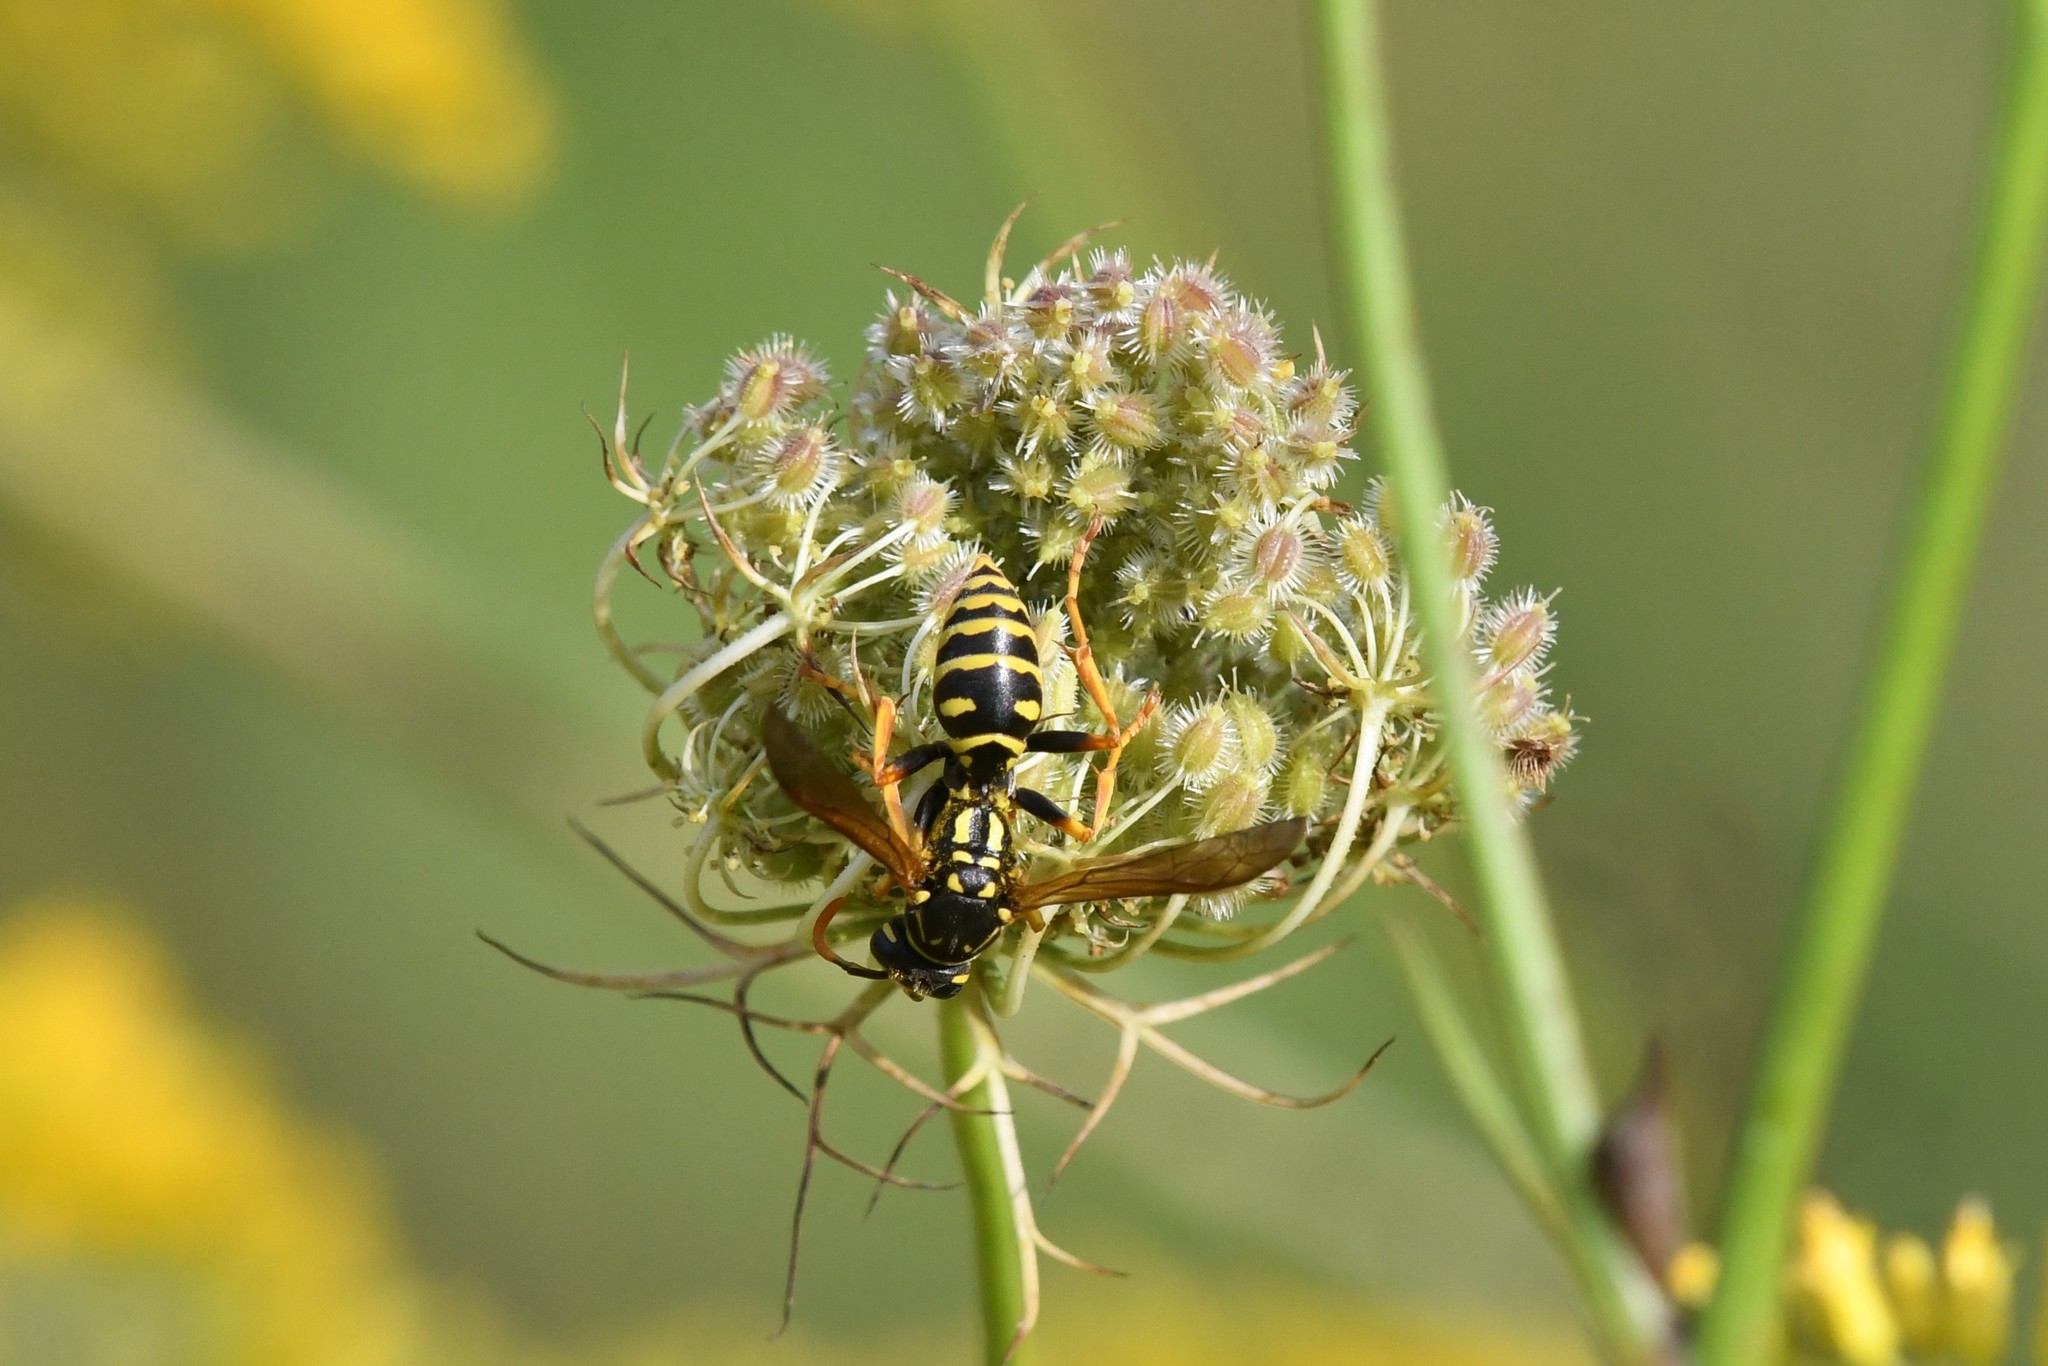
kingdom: Animalia
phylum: Arthropoda
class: Insecta
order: Hymenoptera
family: Eumenidae
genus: Polistes
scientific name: Polistes dominula
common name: Paper wasp
